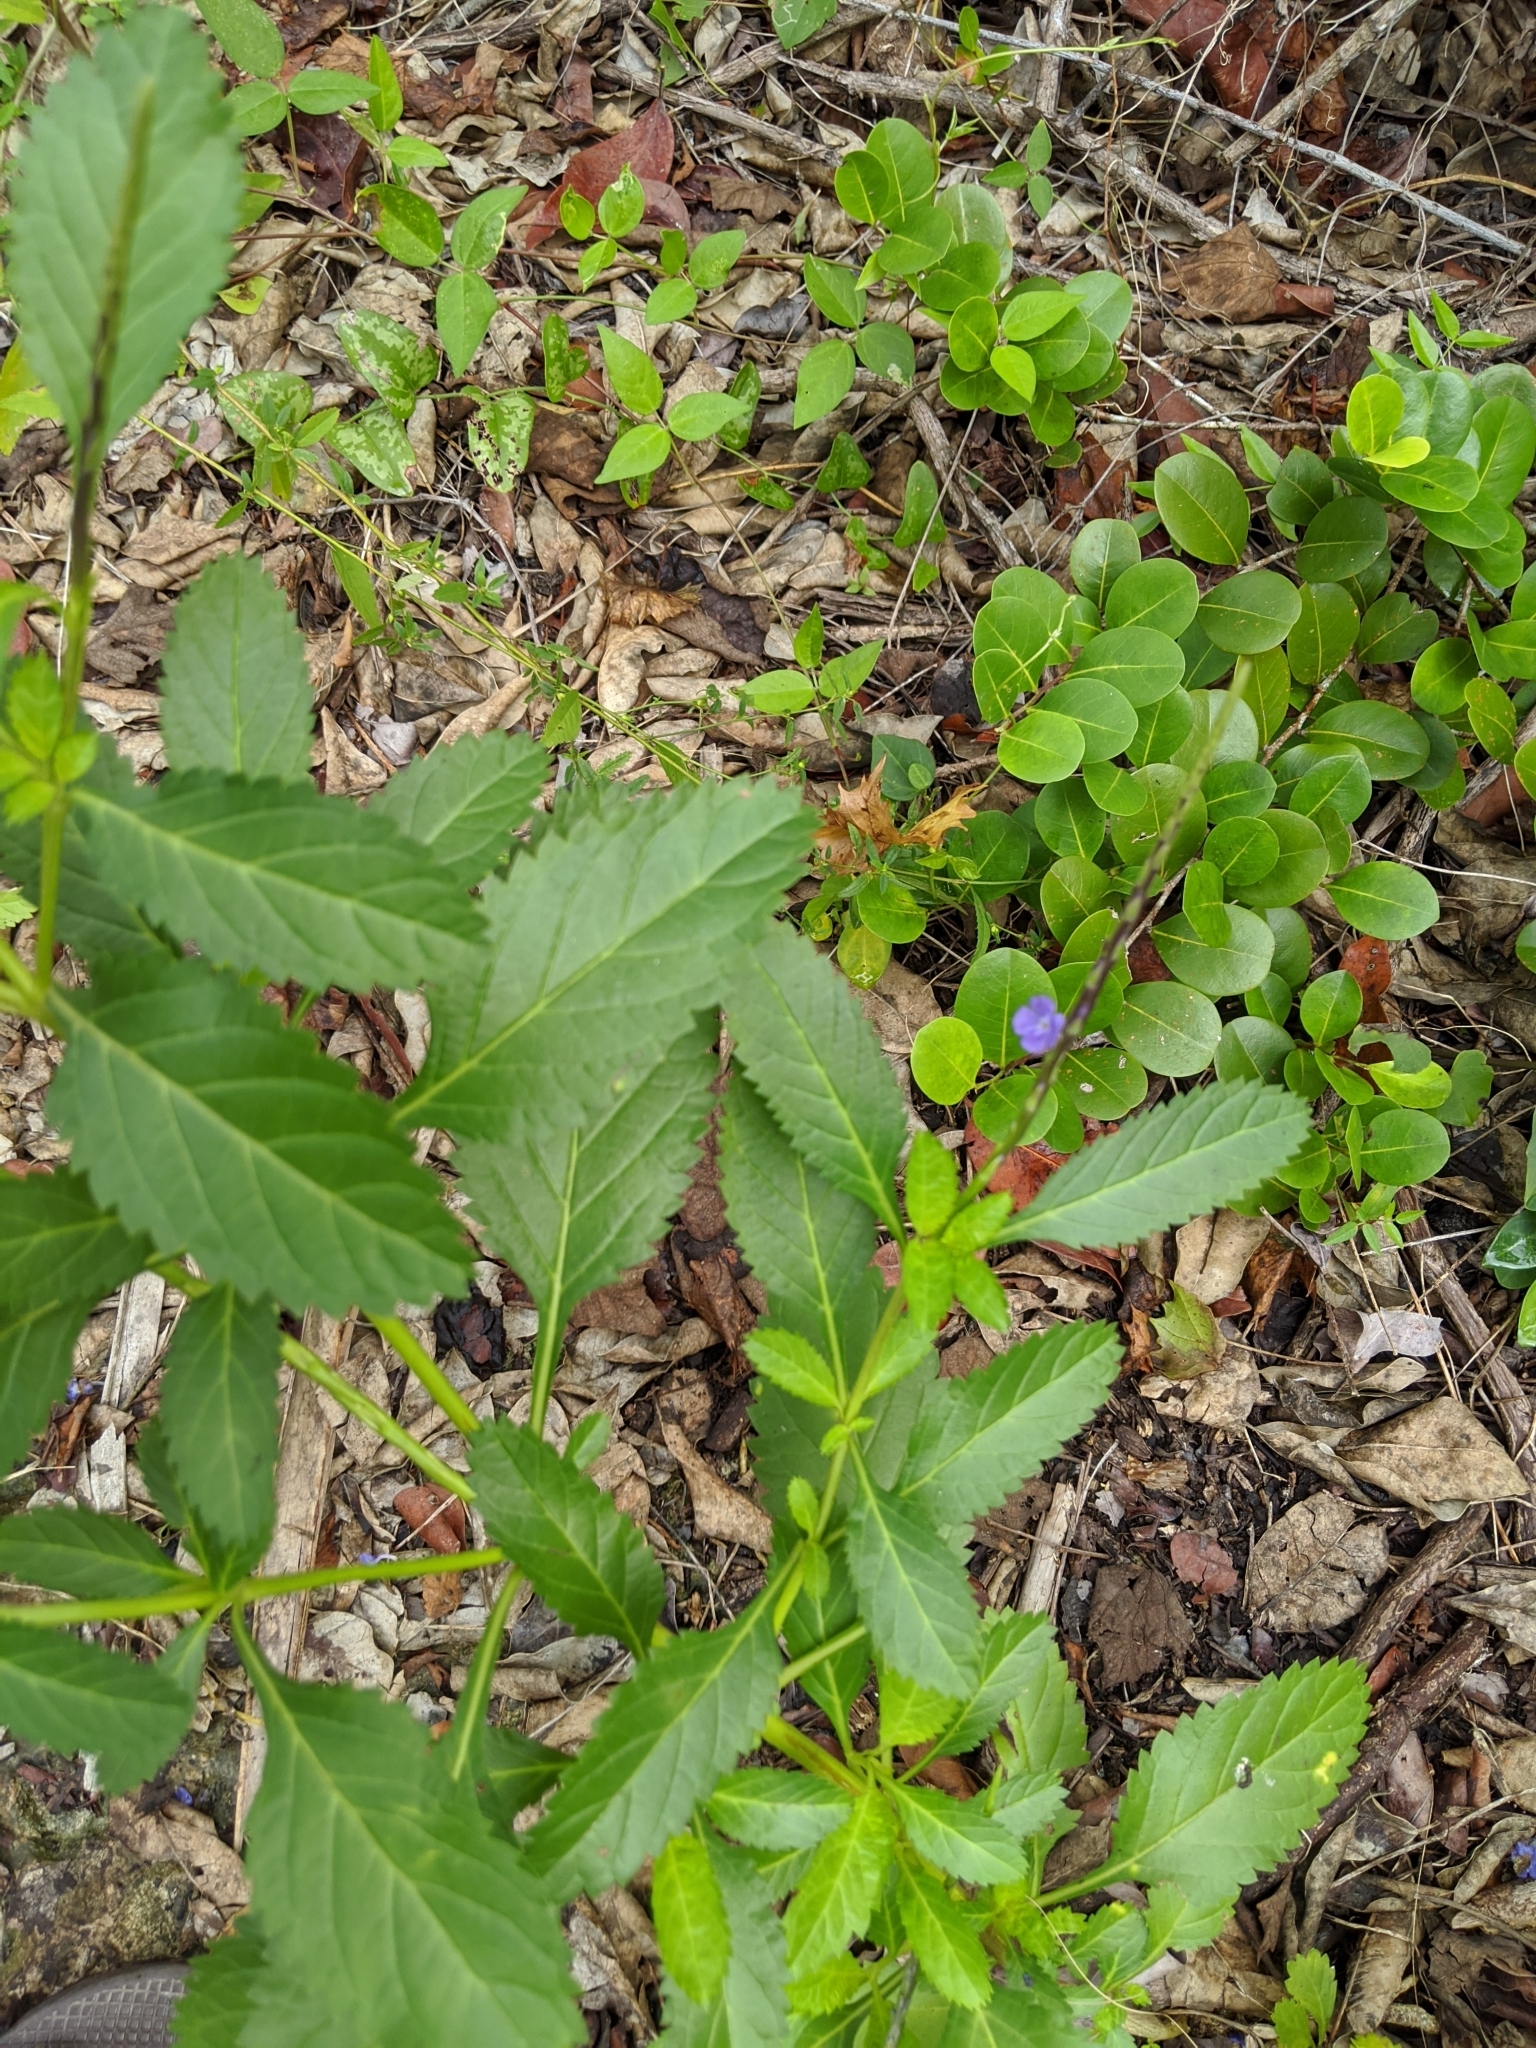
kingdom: Plantae
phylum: Tracheophyta
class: Magnoliopsida
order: Lamiales
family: Verbenaceae
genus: Stachytarpheta
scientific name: Stachytarpheta jamaicensis
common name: Light-blue snakeweed
